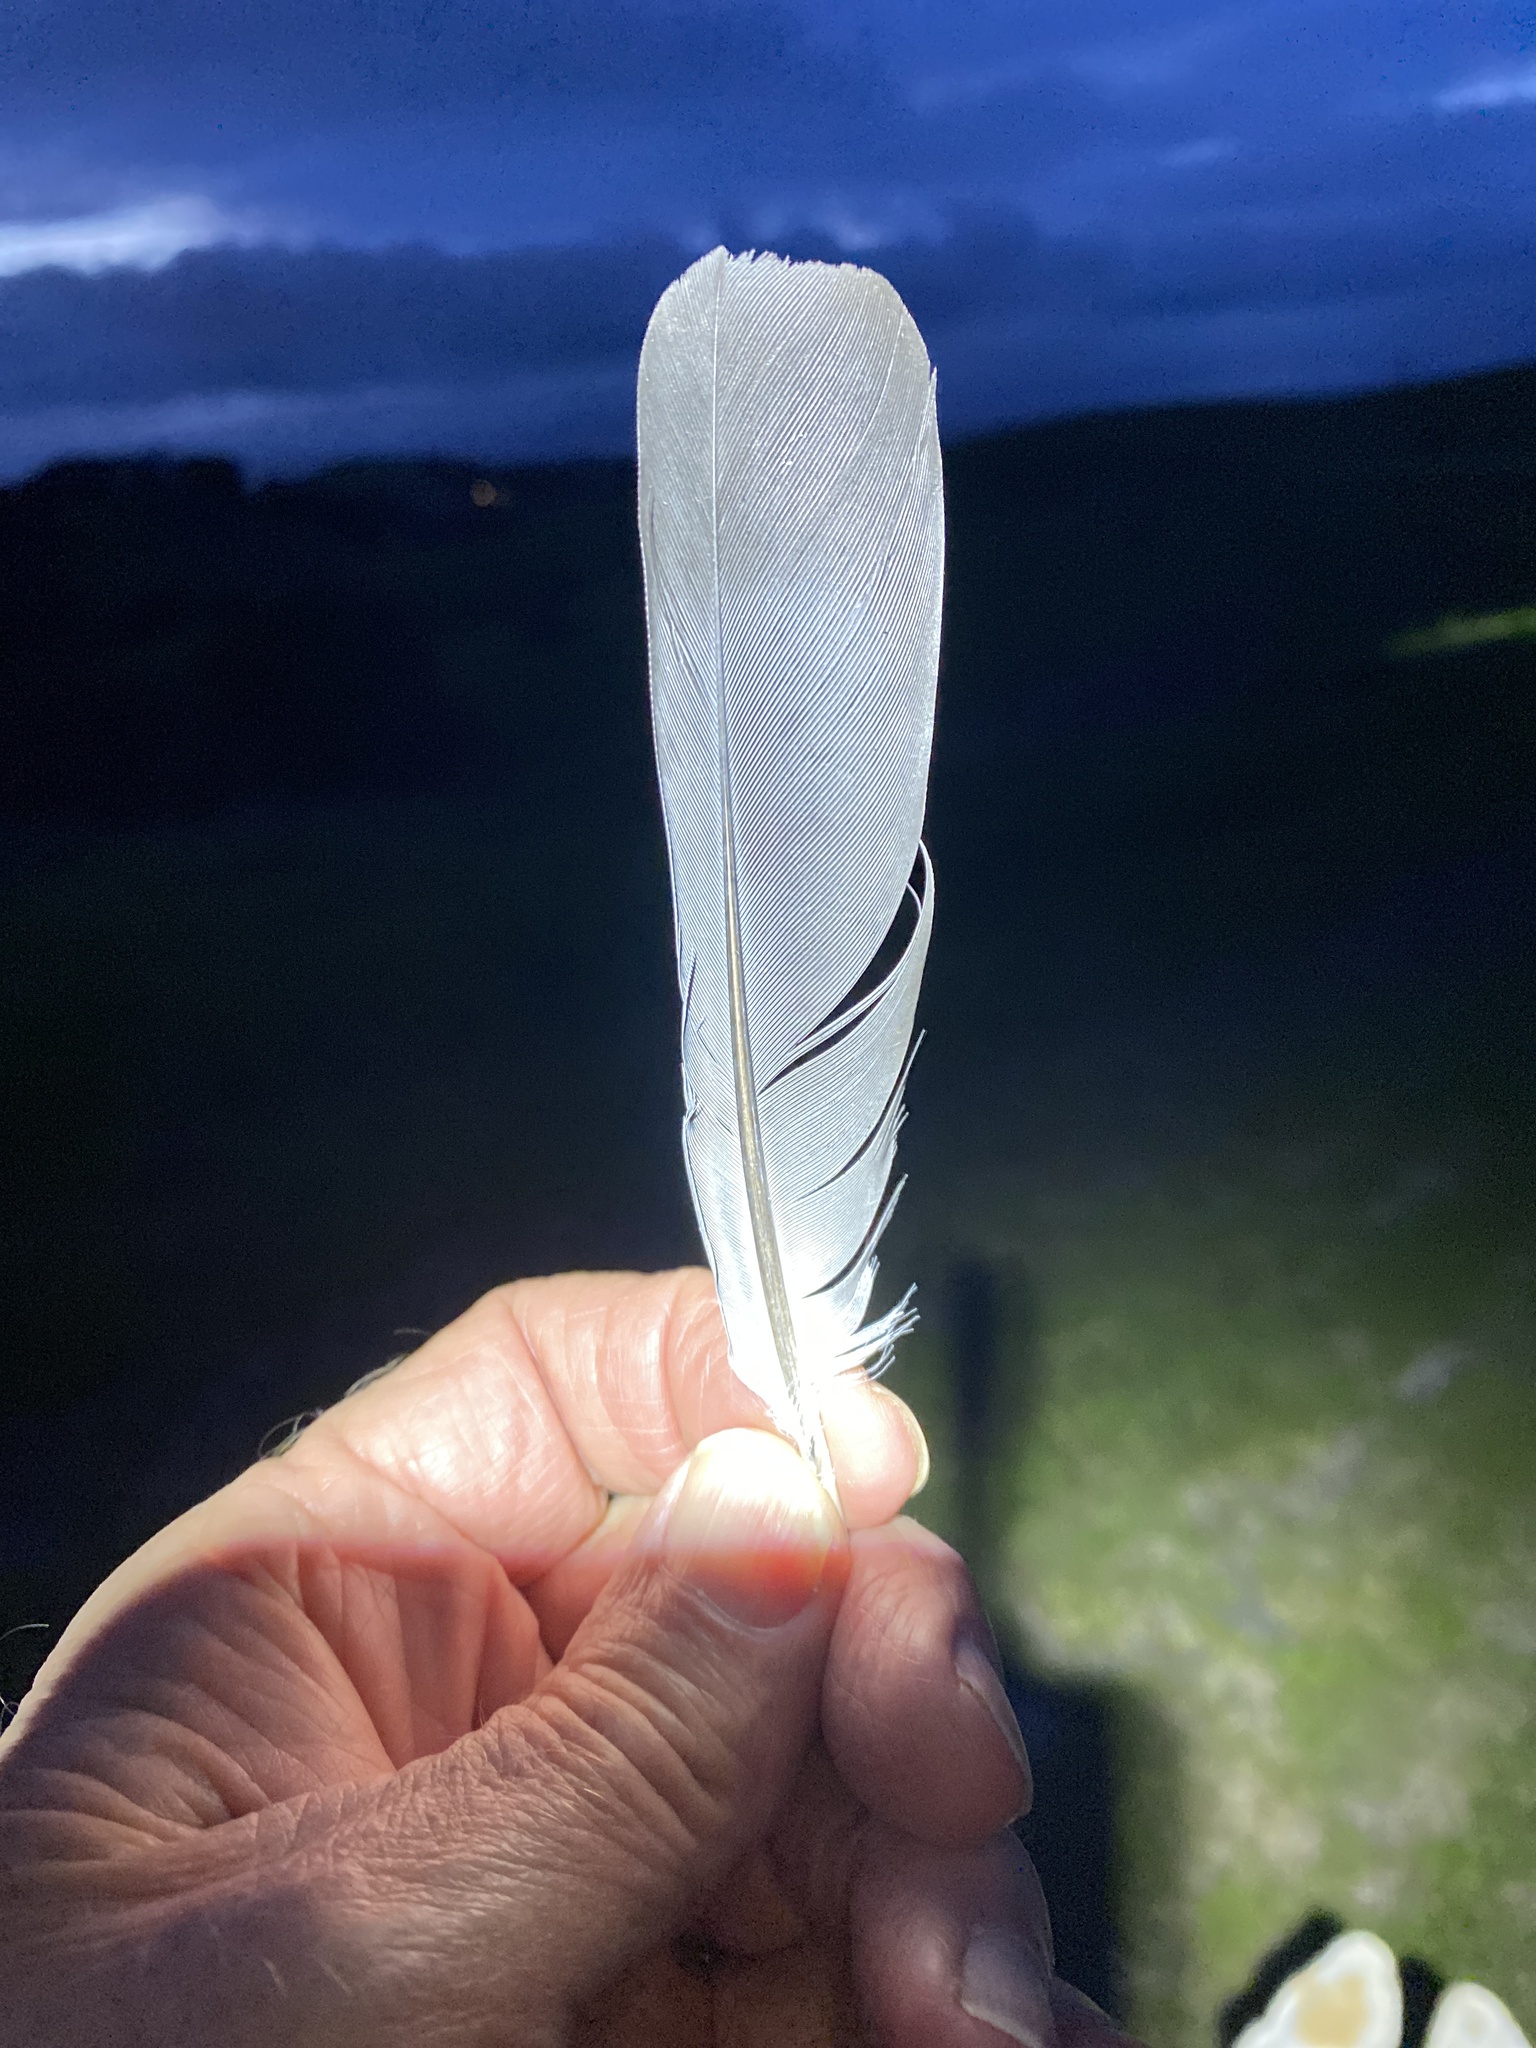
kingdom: Animalia
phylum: Chordata
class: Aves
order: Columbiformes
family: Columbidae
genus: Columba
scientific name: Columba livia
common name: Rock pigeon
